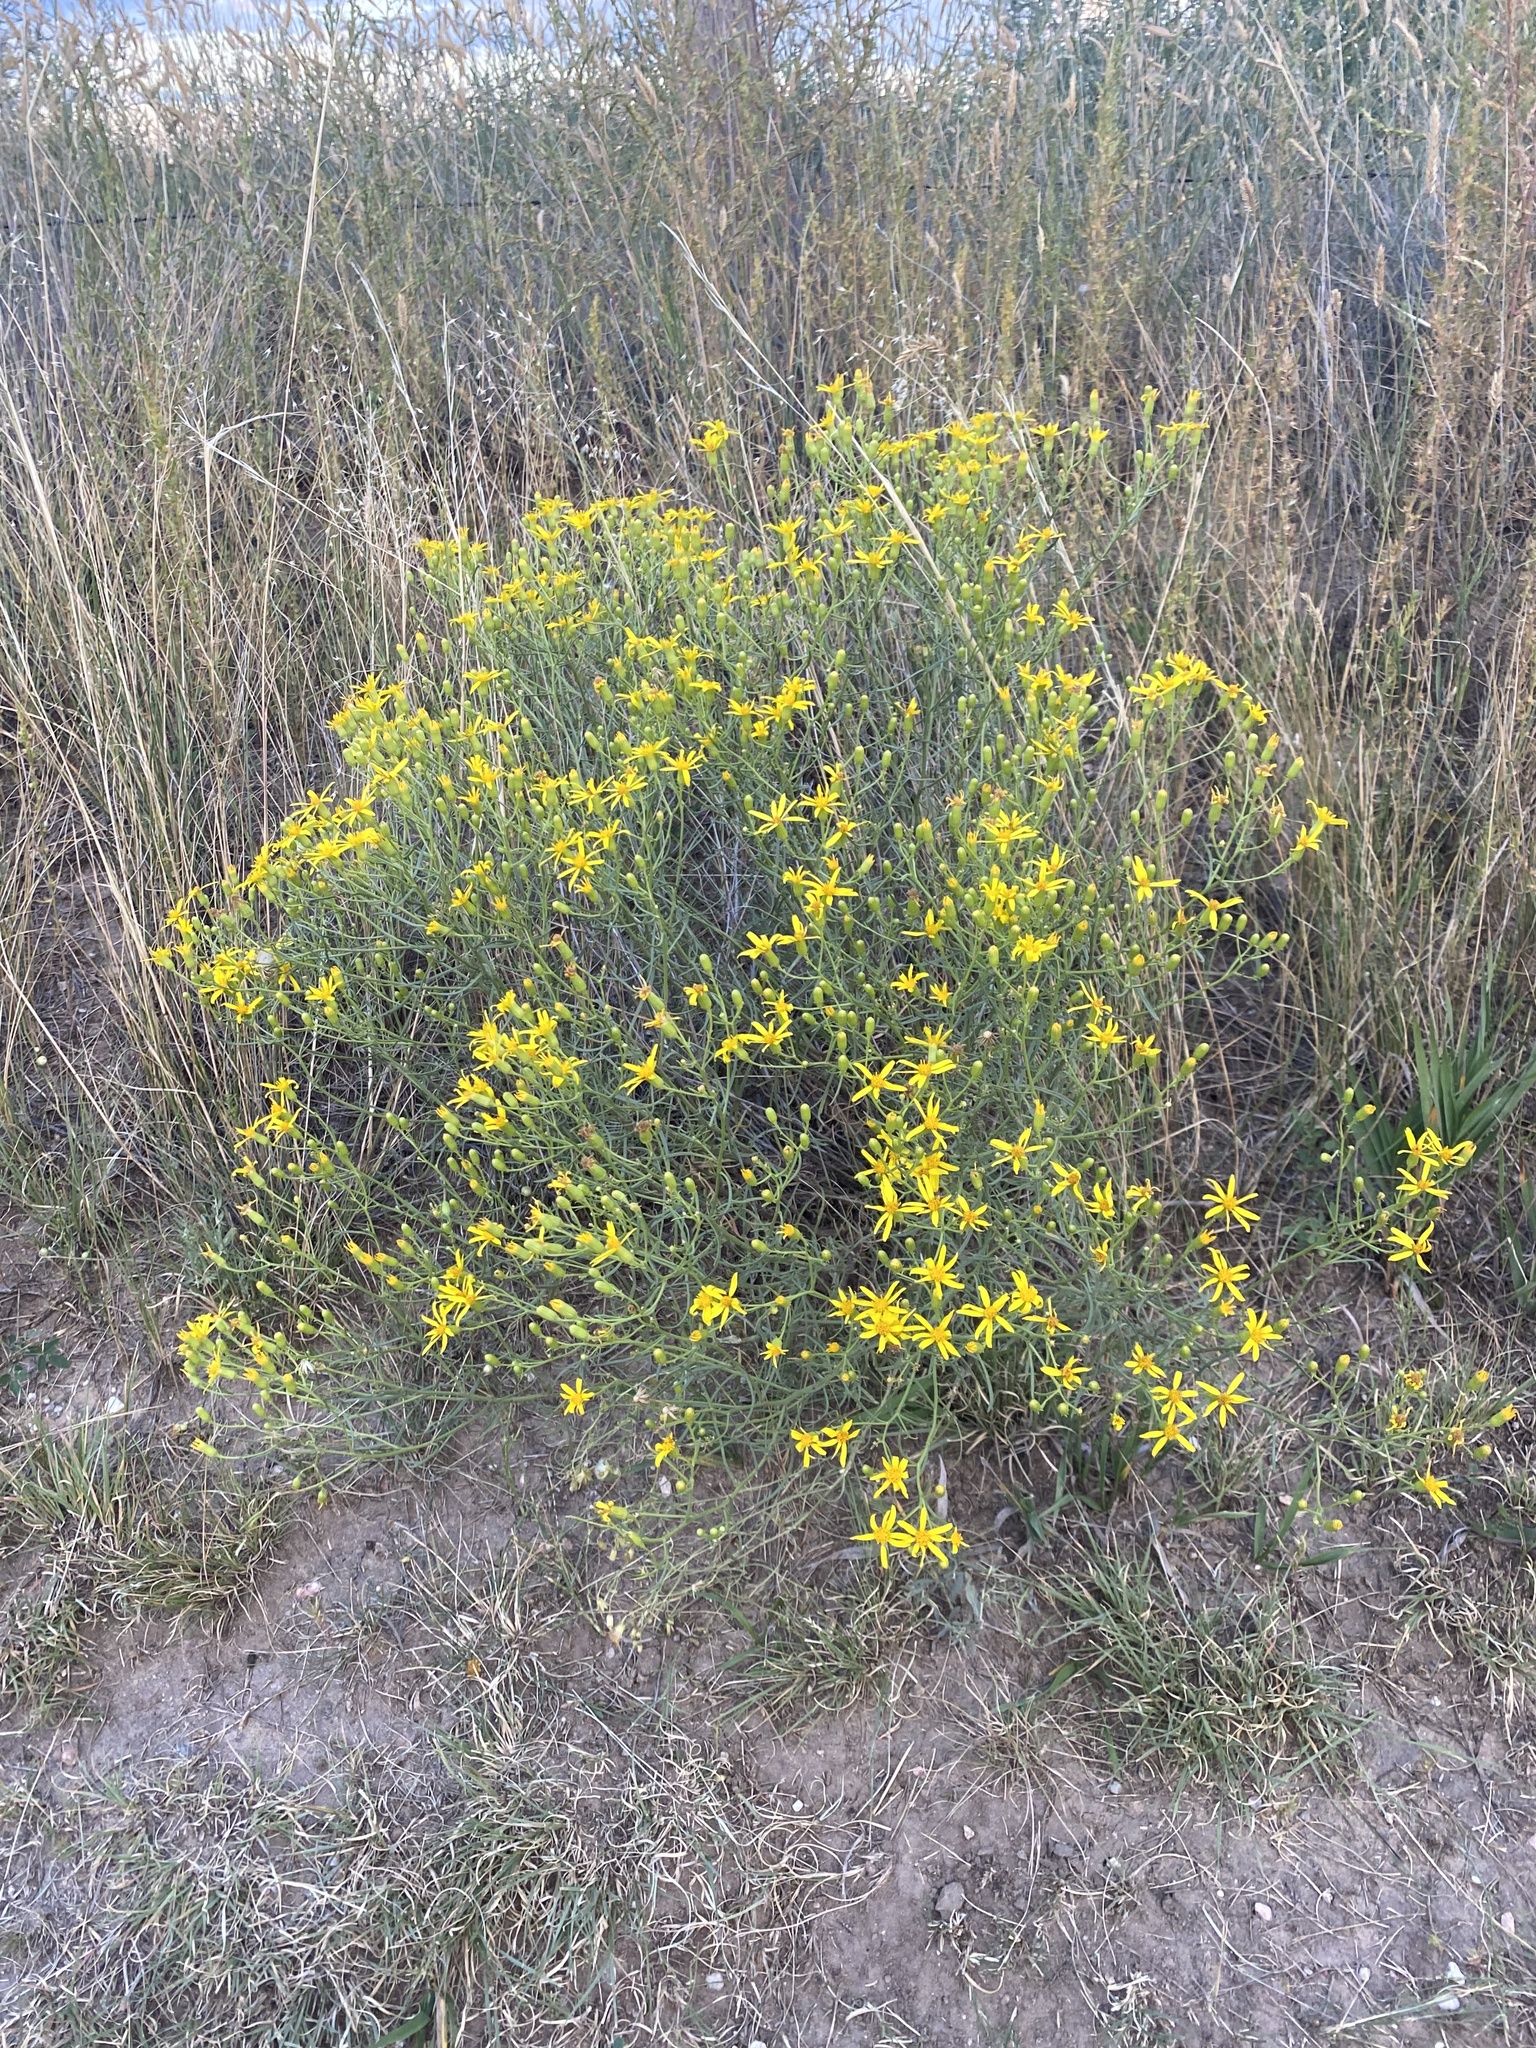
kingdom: Plantae
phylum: Tracheophyta
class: Magnoliopsida
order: Asterales
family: Asteraceae
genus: Senecio
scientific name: Senecio spartioides
